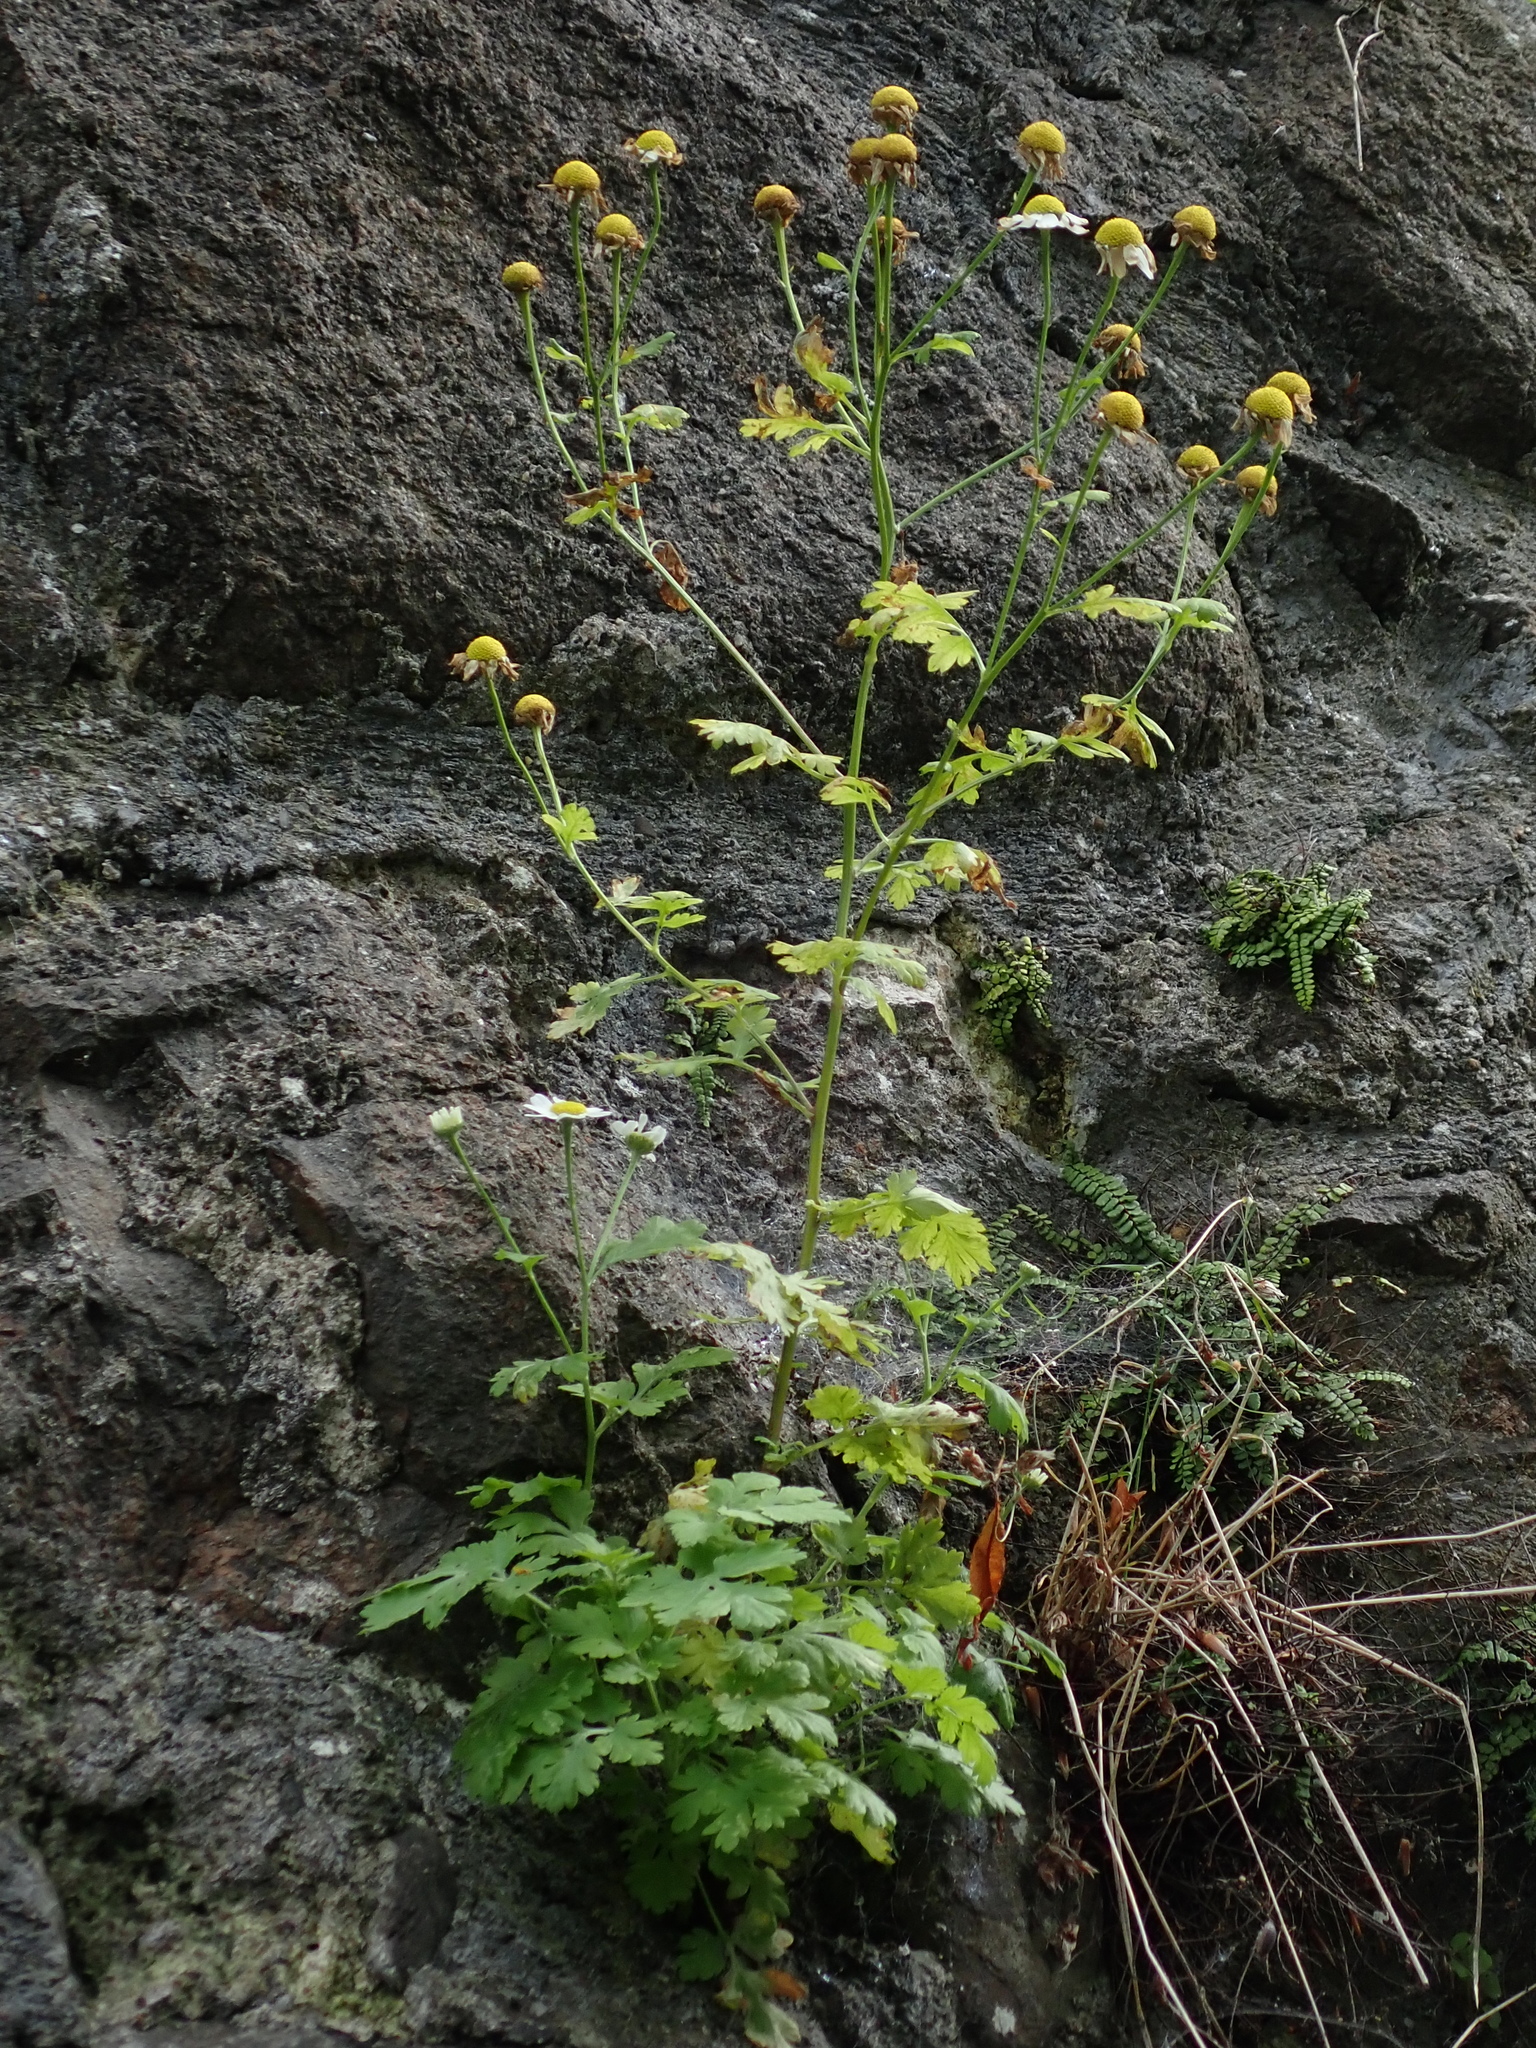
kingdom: Plantae
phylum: Tracheophyta
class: Magnoliopsida
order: Asterales
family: Asteraceae
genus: Tanacetum
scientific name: Tanacetum parthenium
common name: Feverfew
